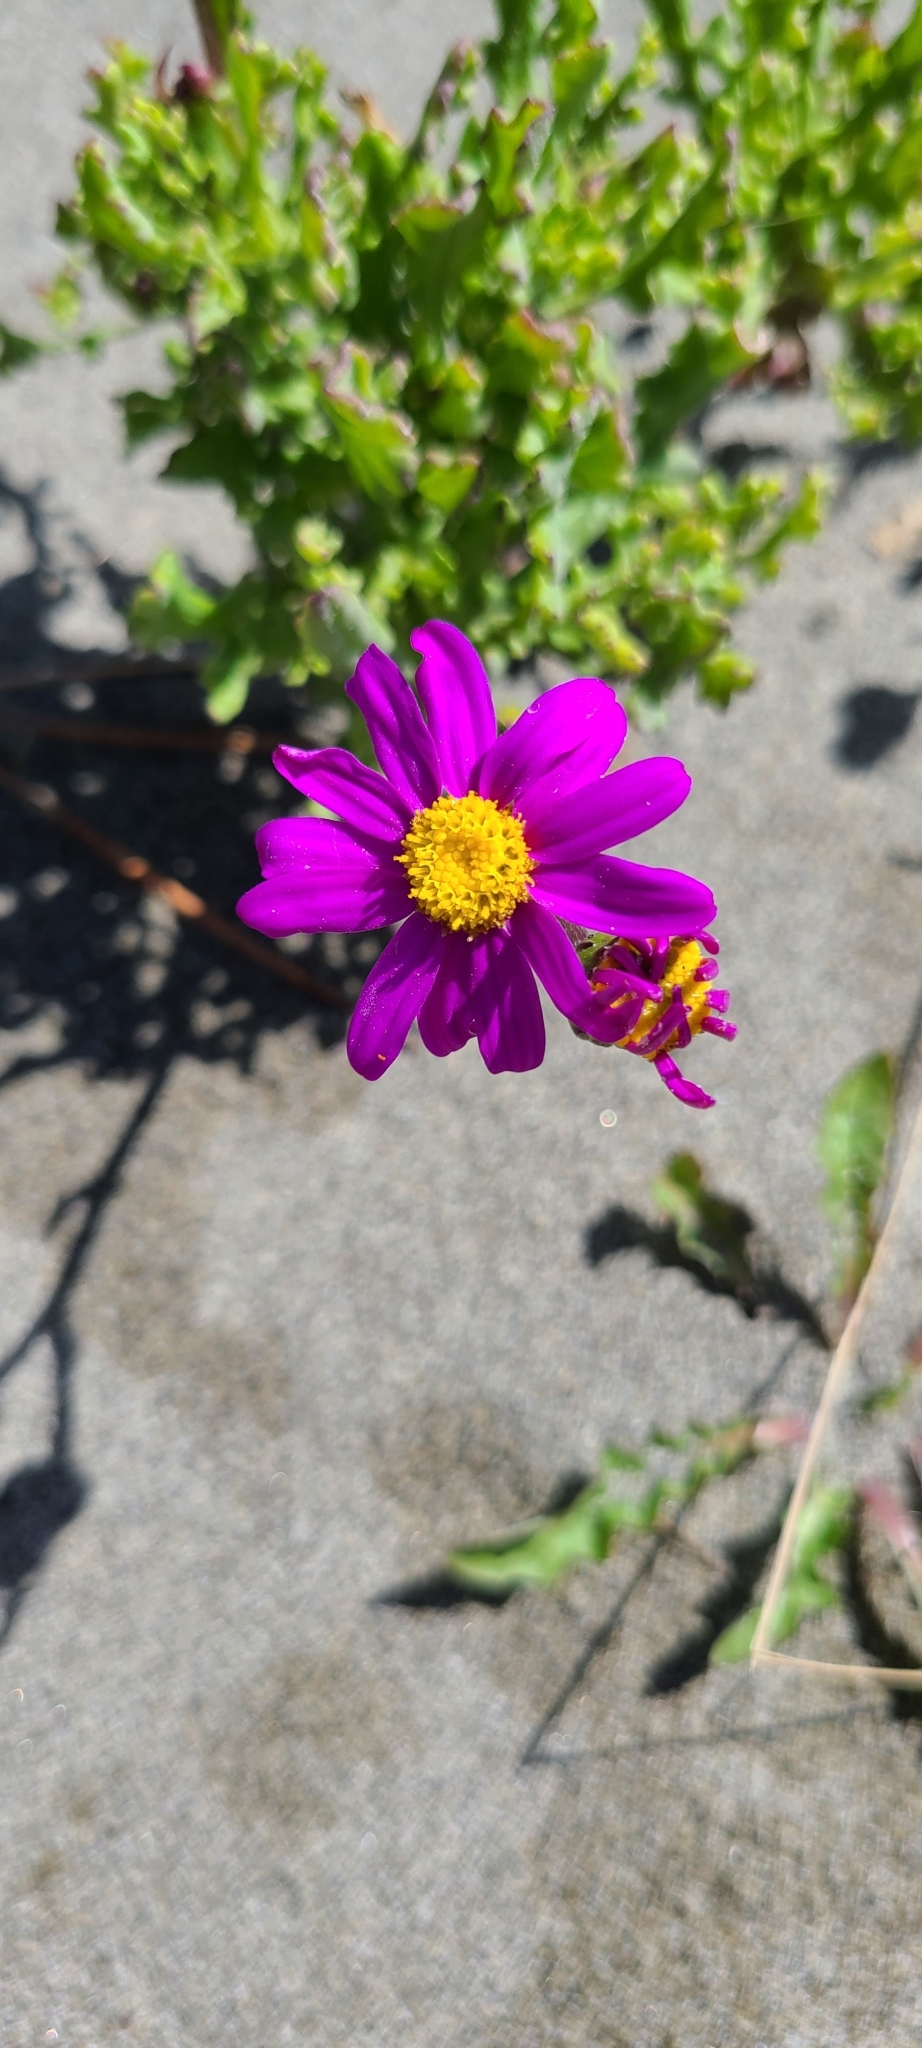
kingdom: Plantae
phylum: Tracheophyta
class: Magnoliopsida
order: Asterales
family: Asteraceae
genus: Senecio
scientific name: Senecio elegans
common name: Purple groundsel
